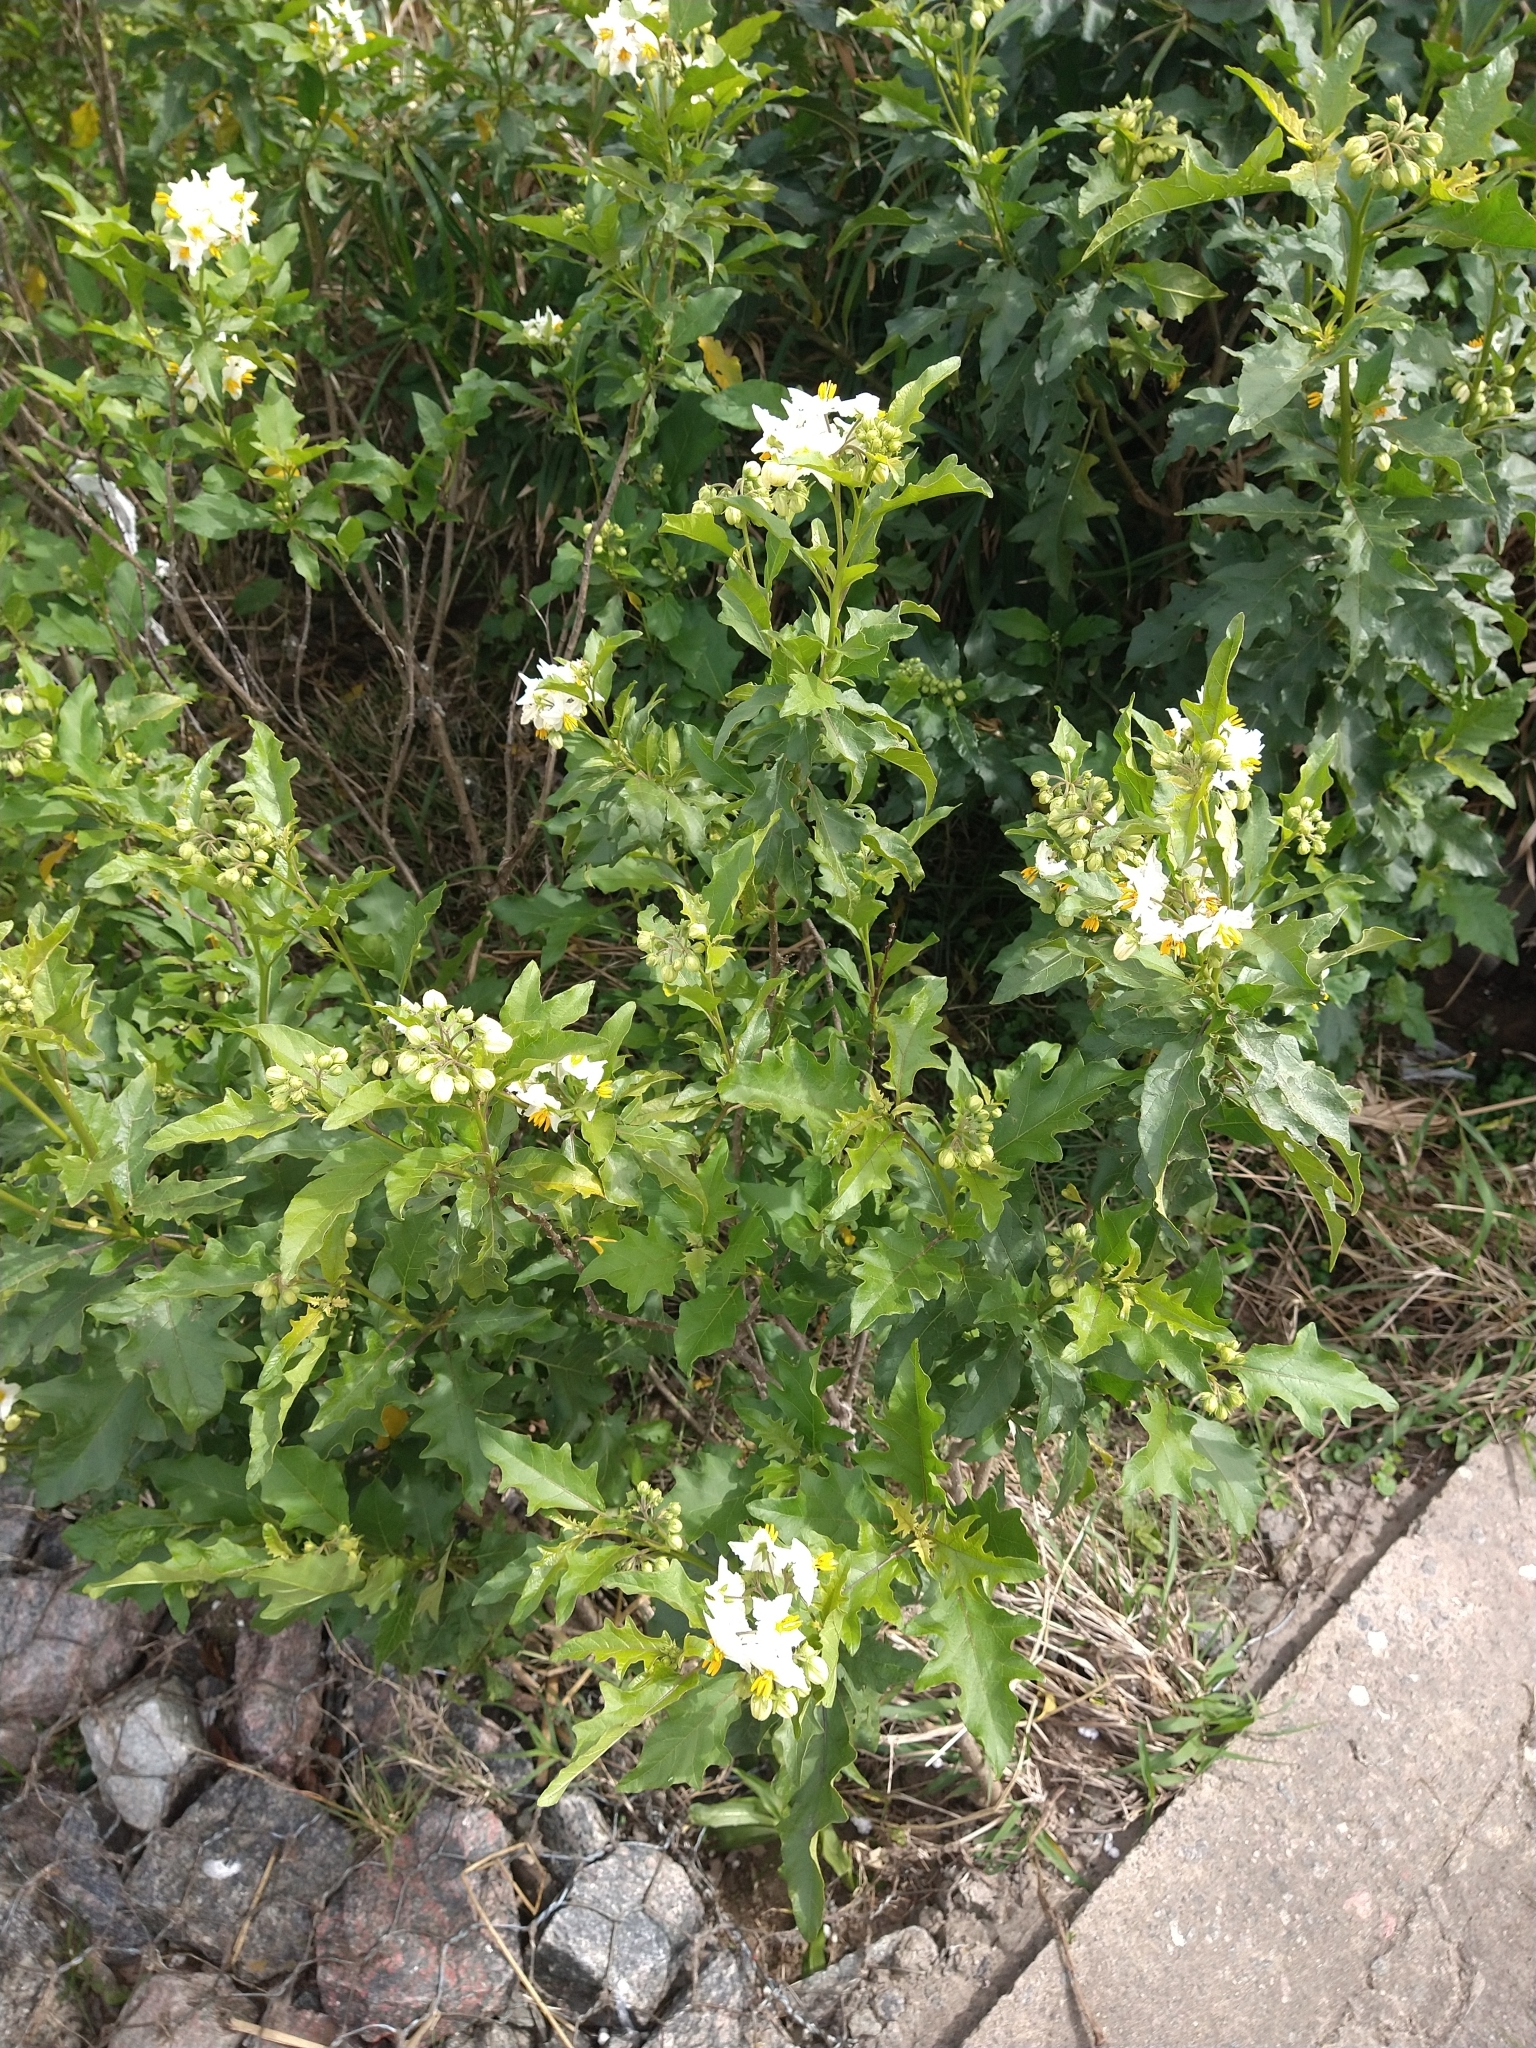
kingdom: Plantae
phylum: Tracheophyta
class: Magnoliopsida
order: Solanales
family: Solanaceae
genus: Solanum
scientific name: Solanum bonariense
